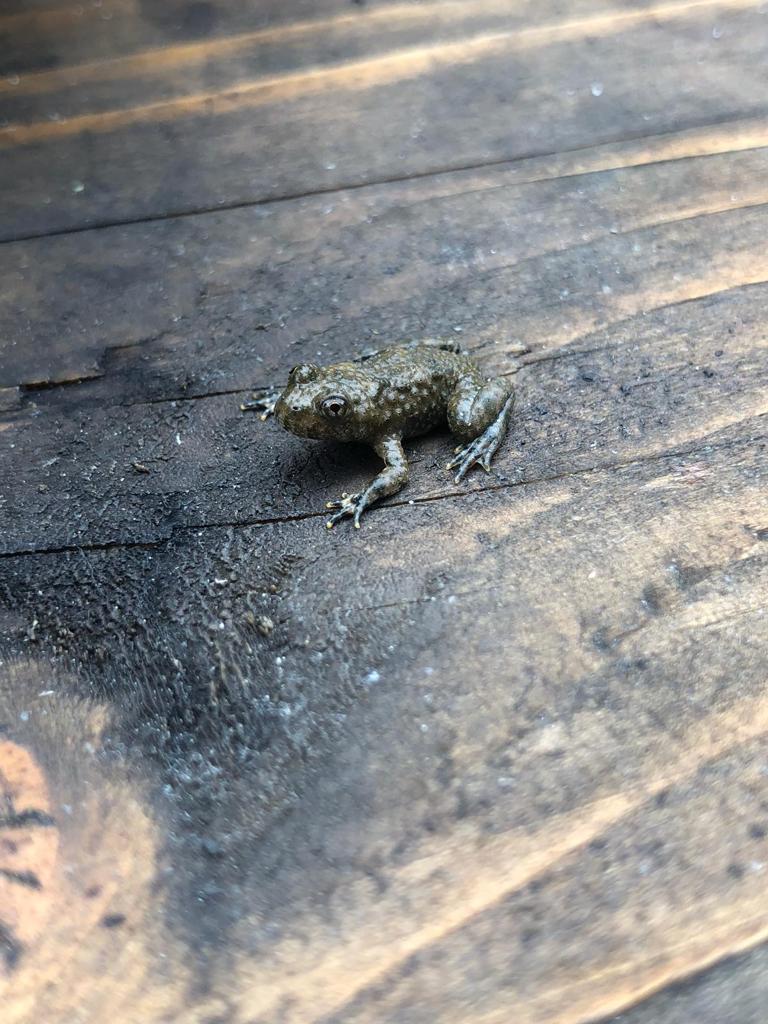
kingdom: Animalia
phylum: Chordata
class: Amphibia
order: Anura
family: Bufonidae
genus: Bufotes
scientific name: Bufotes viridis
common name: European green toad
